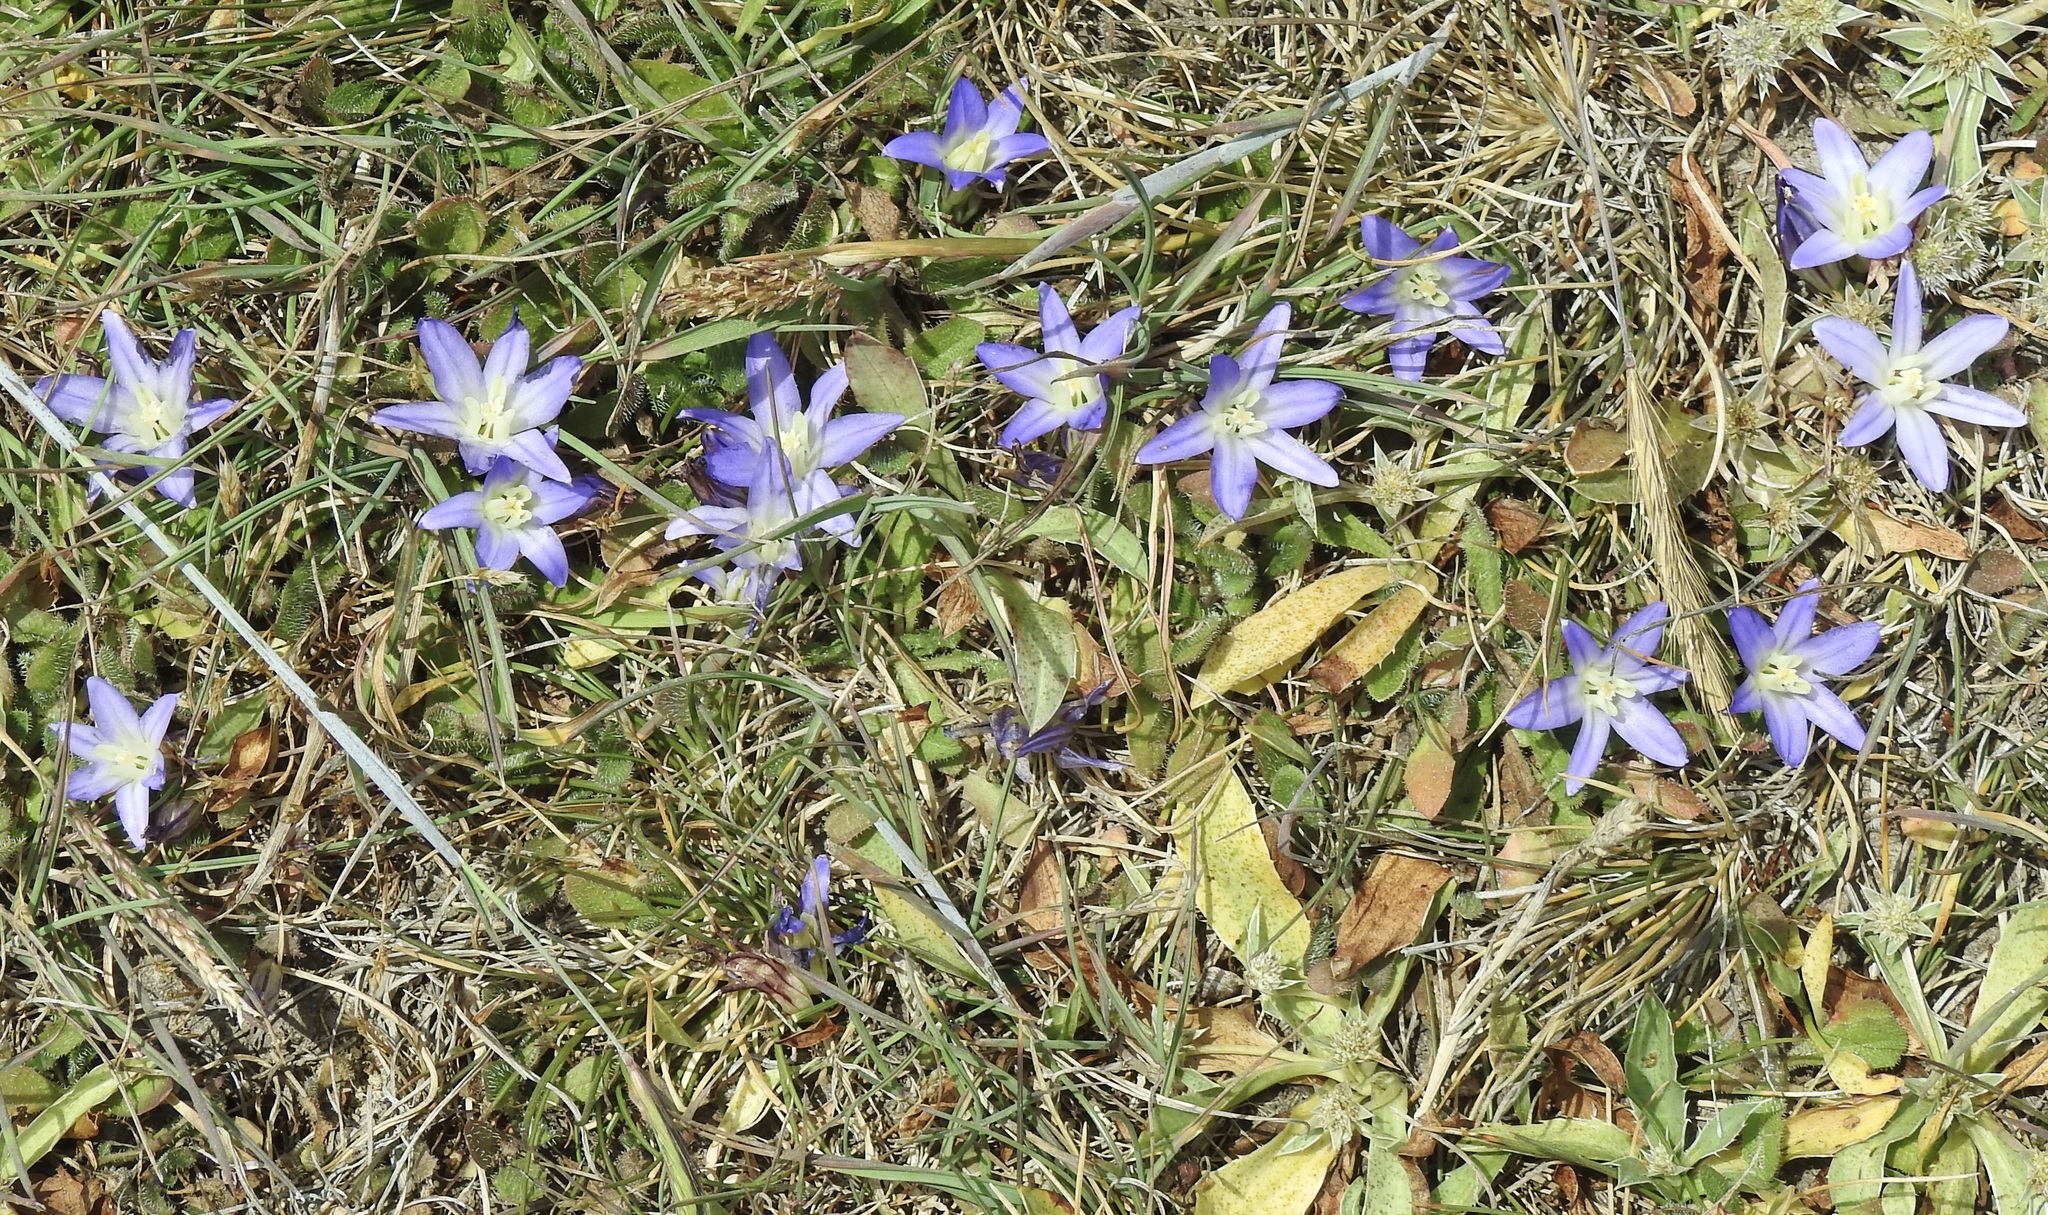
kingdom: Plantae
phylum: Tracheophyta
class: Liliopsida
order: Asparagales
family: Asparagaceae
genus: Brodiaea
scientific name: Brodiaea terrestris
